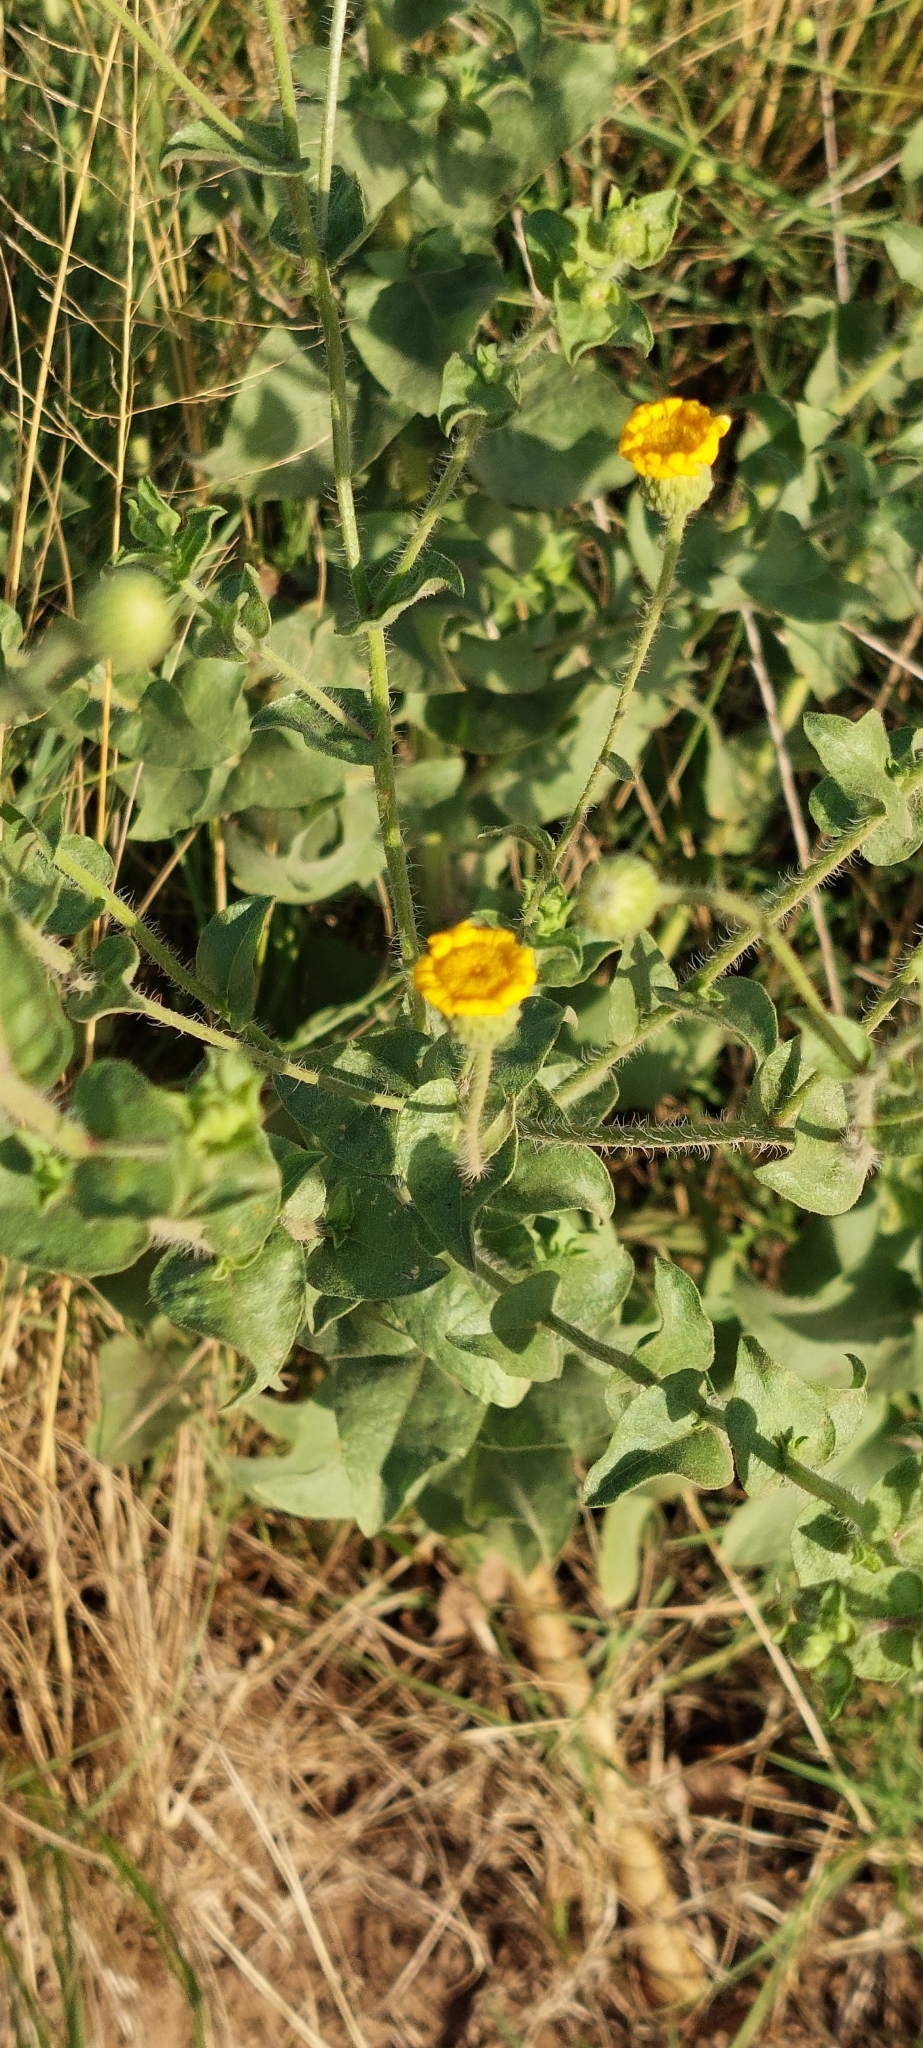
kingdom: Plantae
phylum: Tracheophyta
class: Magnoliopsida
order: Asterales
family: Asteraceae
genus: Heterotheca
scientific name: Heterotheca subaxillaris
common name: Camphorweed
